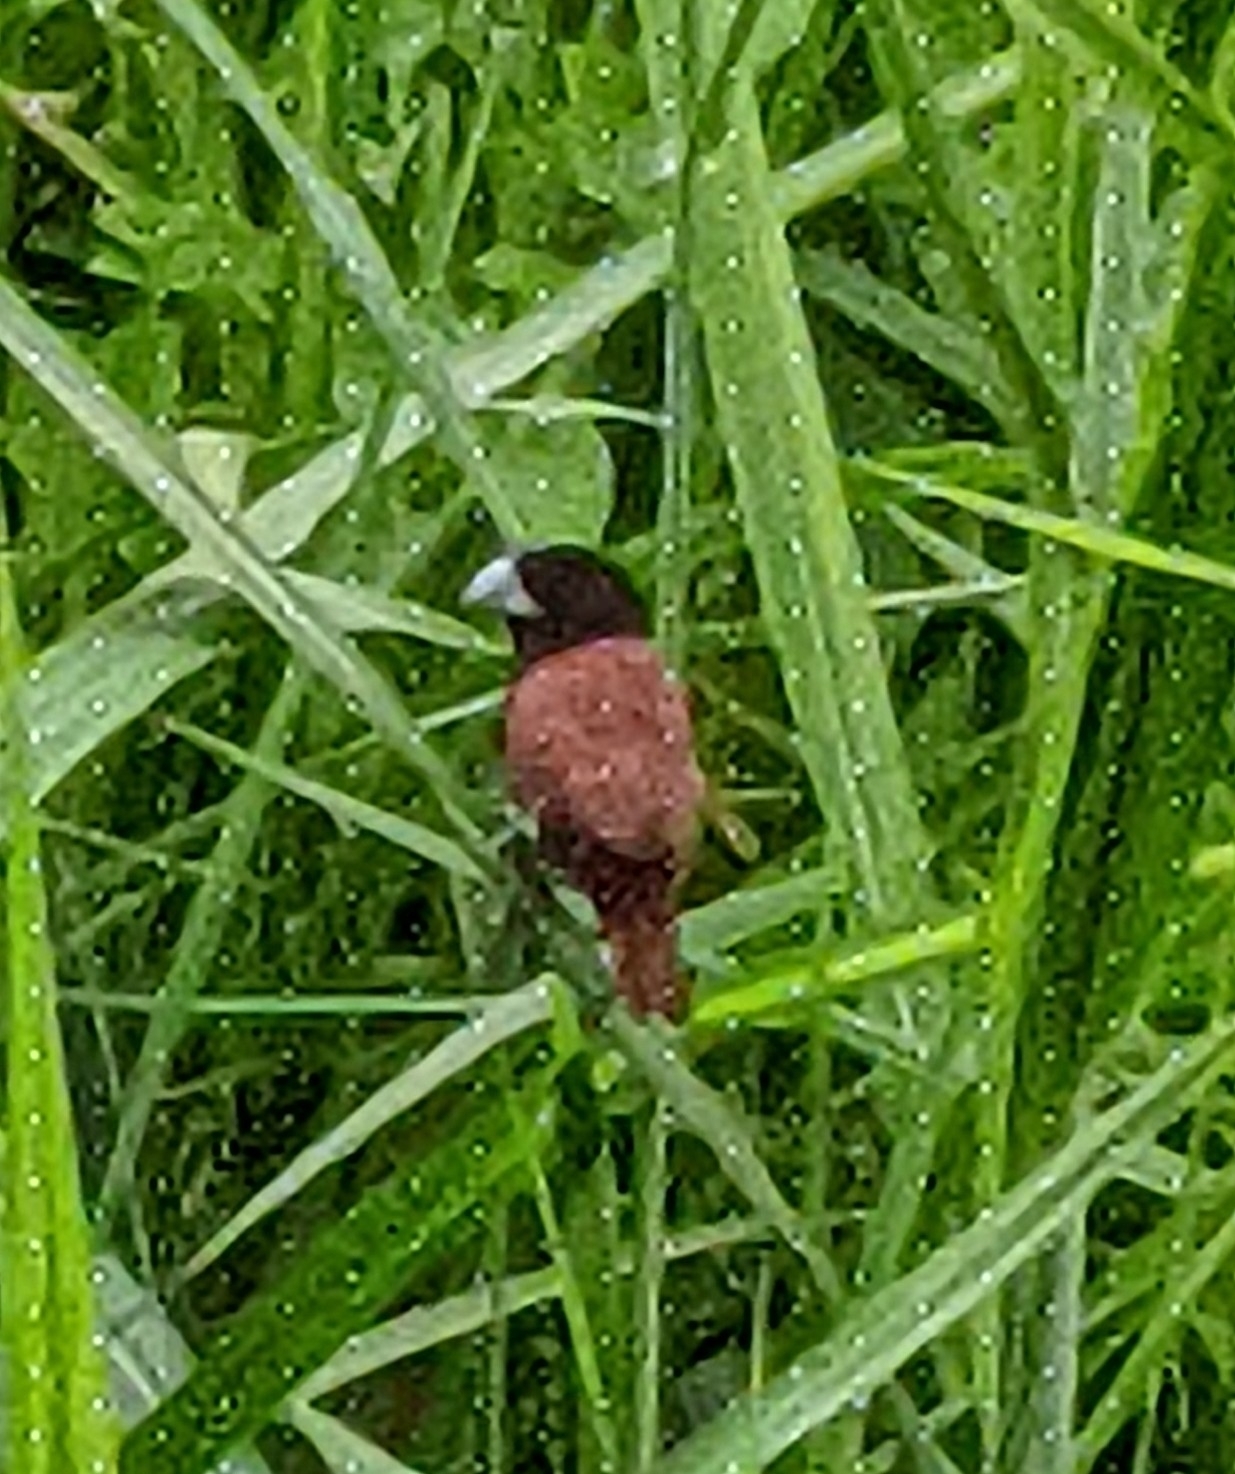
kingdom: Animalia
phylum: Chordata
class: Aves
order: Passeriformes
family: Estrildidae
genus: Lonchura
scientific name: Lonchura atricapilla
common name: Chestnut munia
